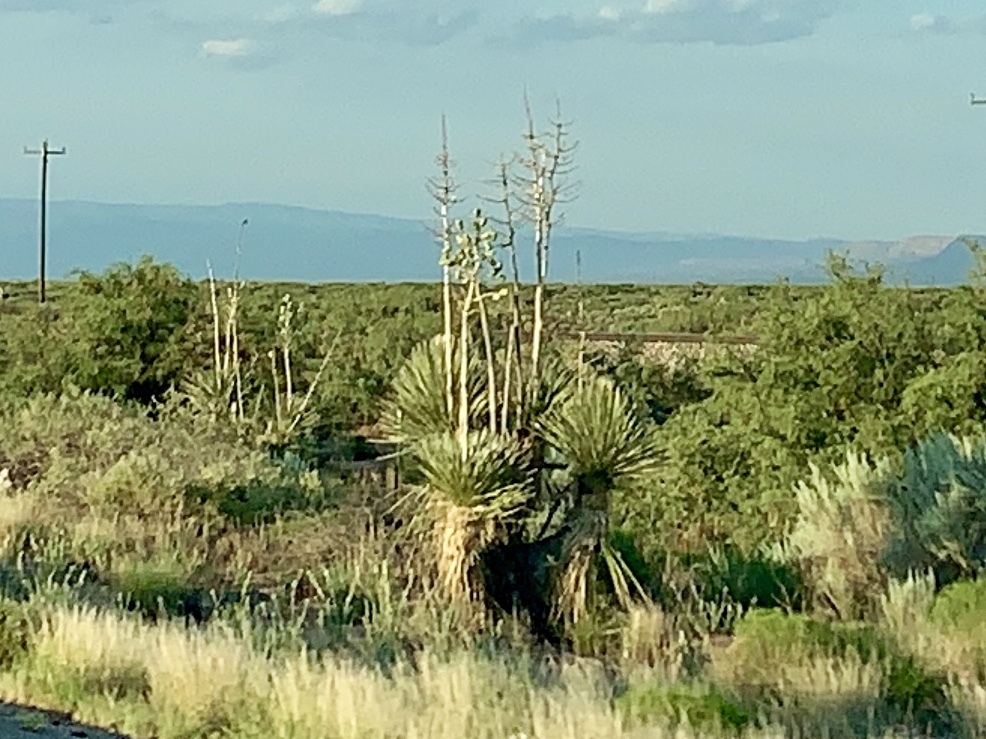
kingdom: Plantae
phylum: Tracheophyta
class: Liliopsida
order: Asparagales
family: Asparagaceae
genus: Yucca
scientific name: Yucca elata
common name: Palmella
